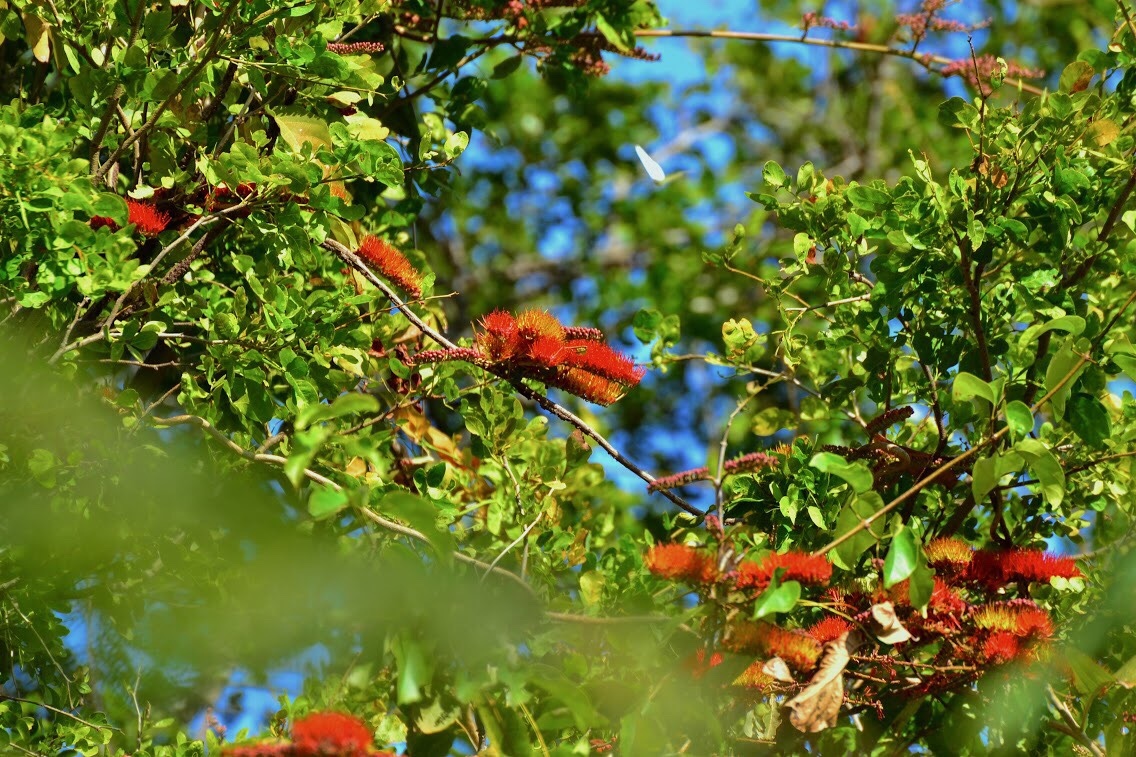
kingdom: Plantae
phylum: Tracheophyta
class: Magnoliopsida
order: Myrtales
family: Combretaceae
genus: Combretum
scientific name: Combretum fruticosum
